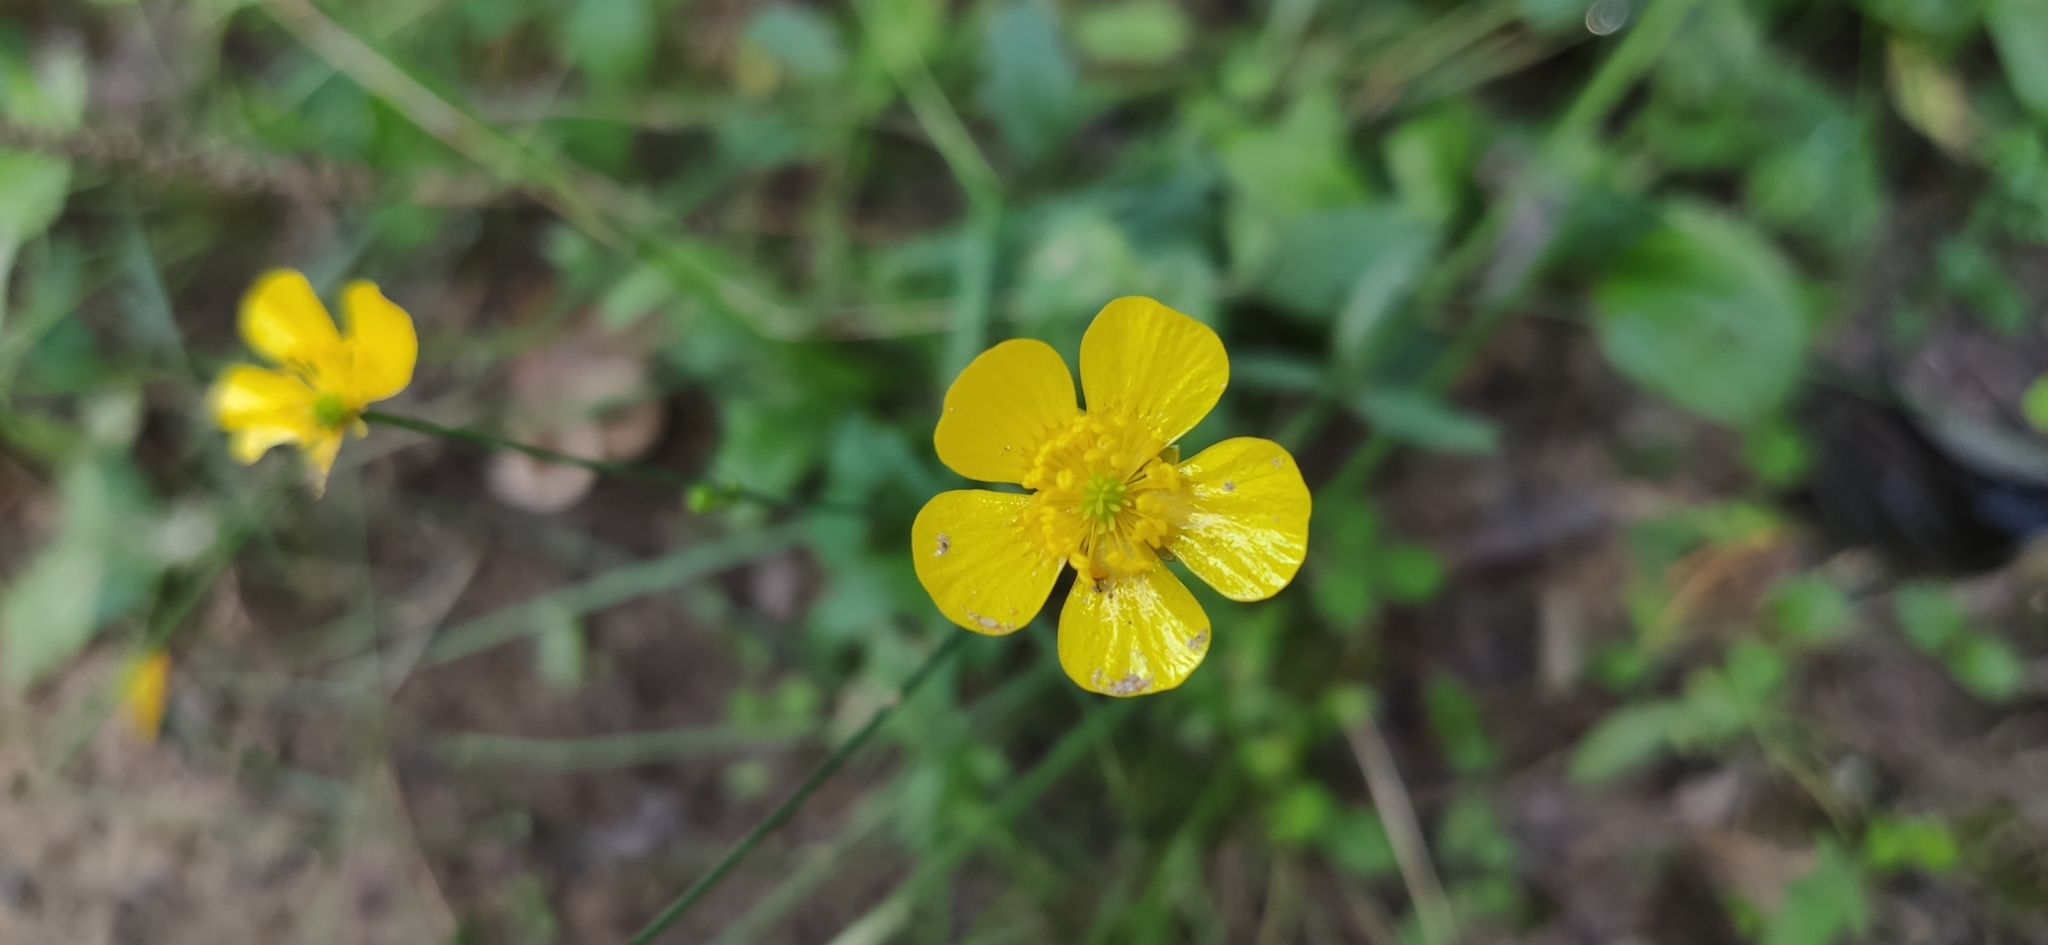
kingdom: Plantae
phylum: Tracheophyta
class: Magnoliopsida
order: Ranunculales
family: Ranunculaceae
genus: Ranunculus
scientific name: Ranunculus acris
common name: Meadow buttercup
